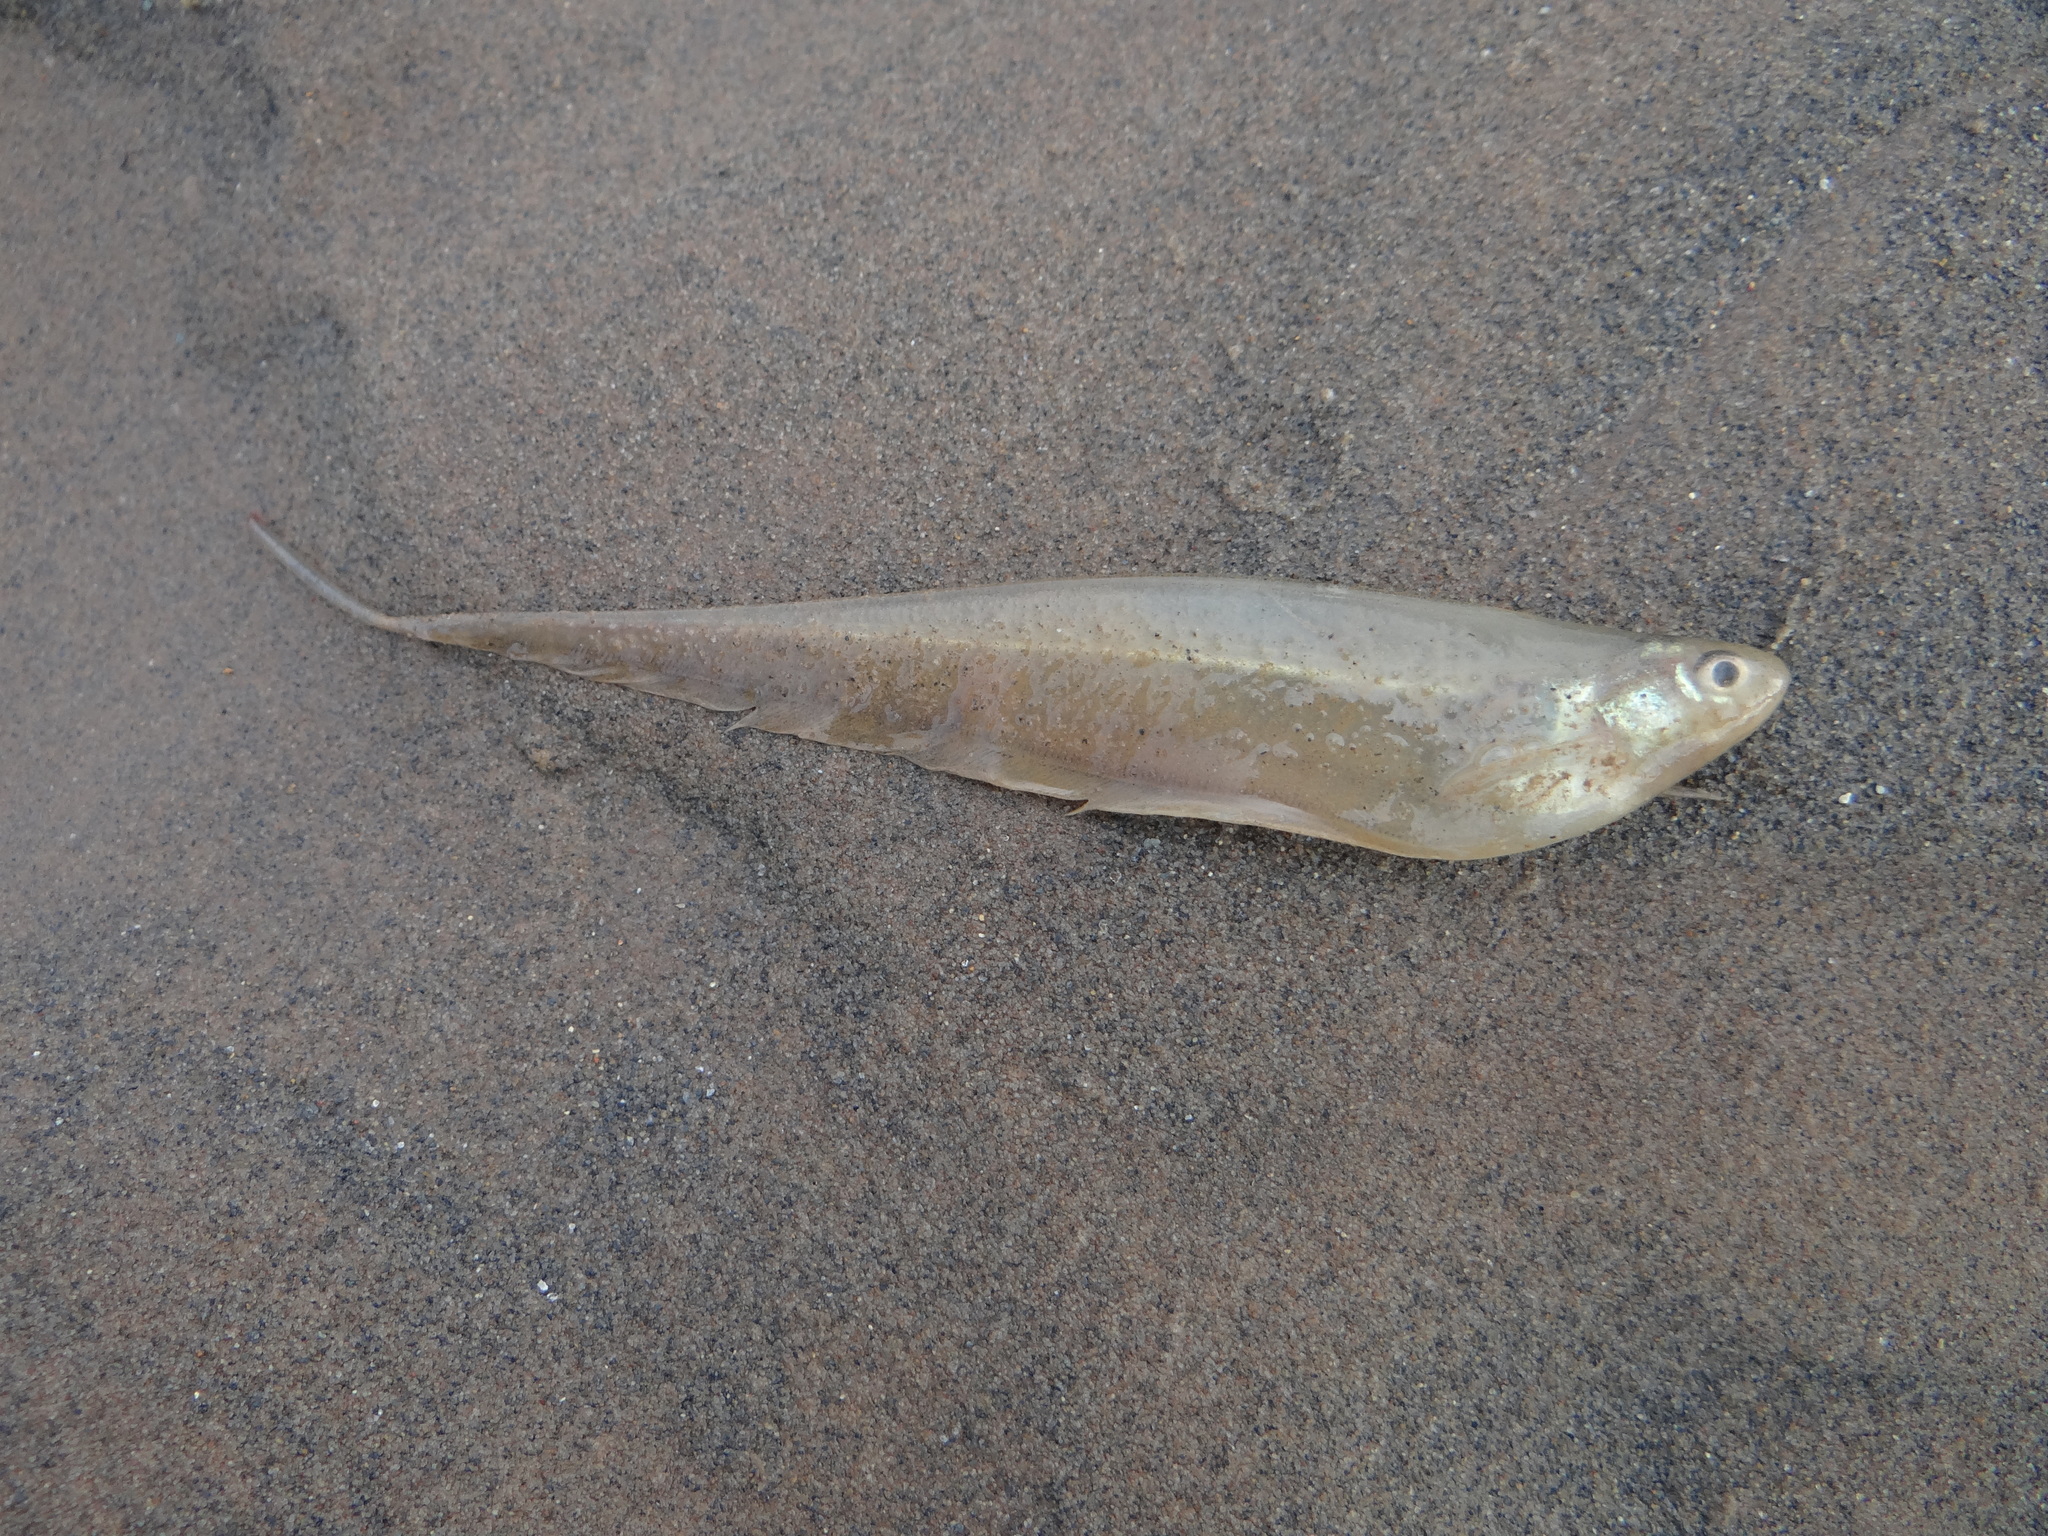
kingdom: Animalia
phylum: Chordata
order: Gymnotiformes
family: Sternopygidae
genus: Eigenmannia
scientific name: Eigenmannia macrops
